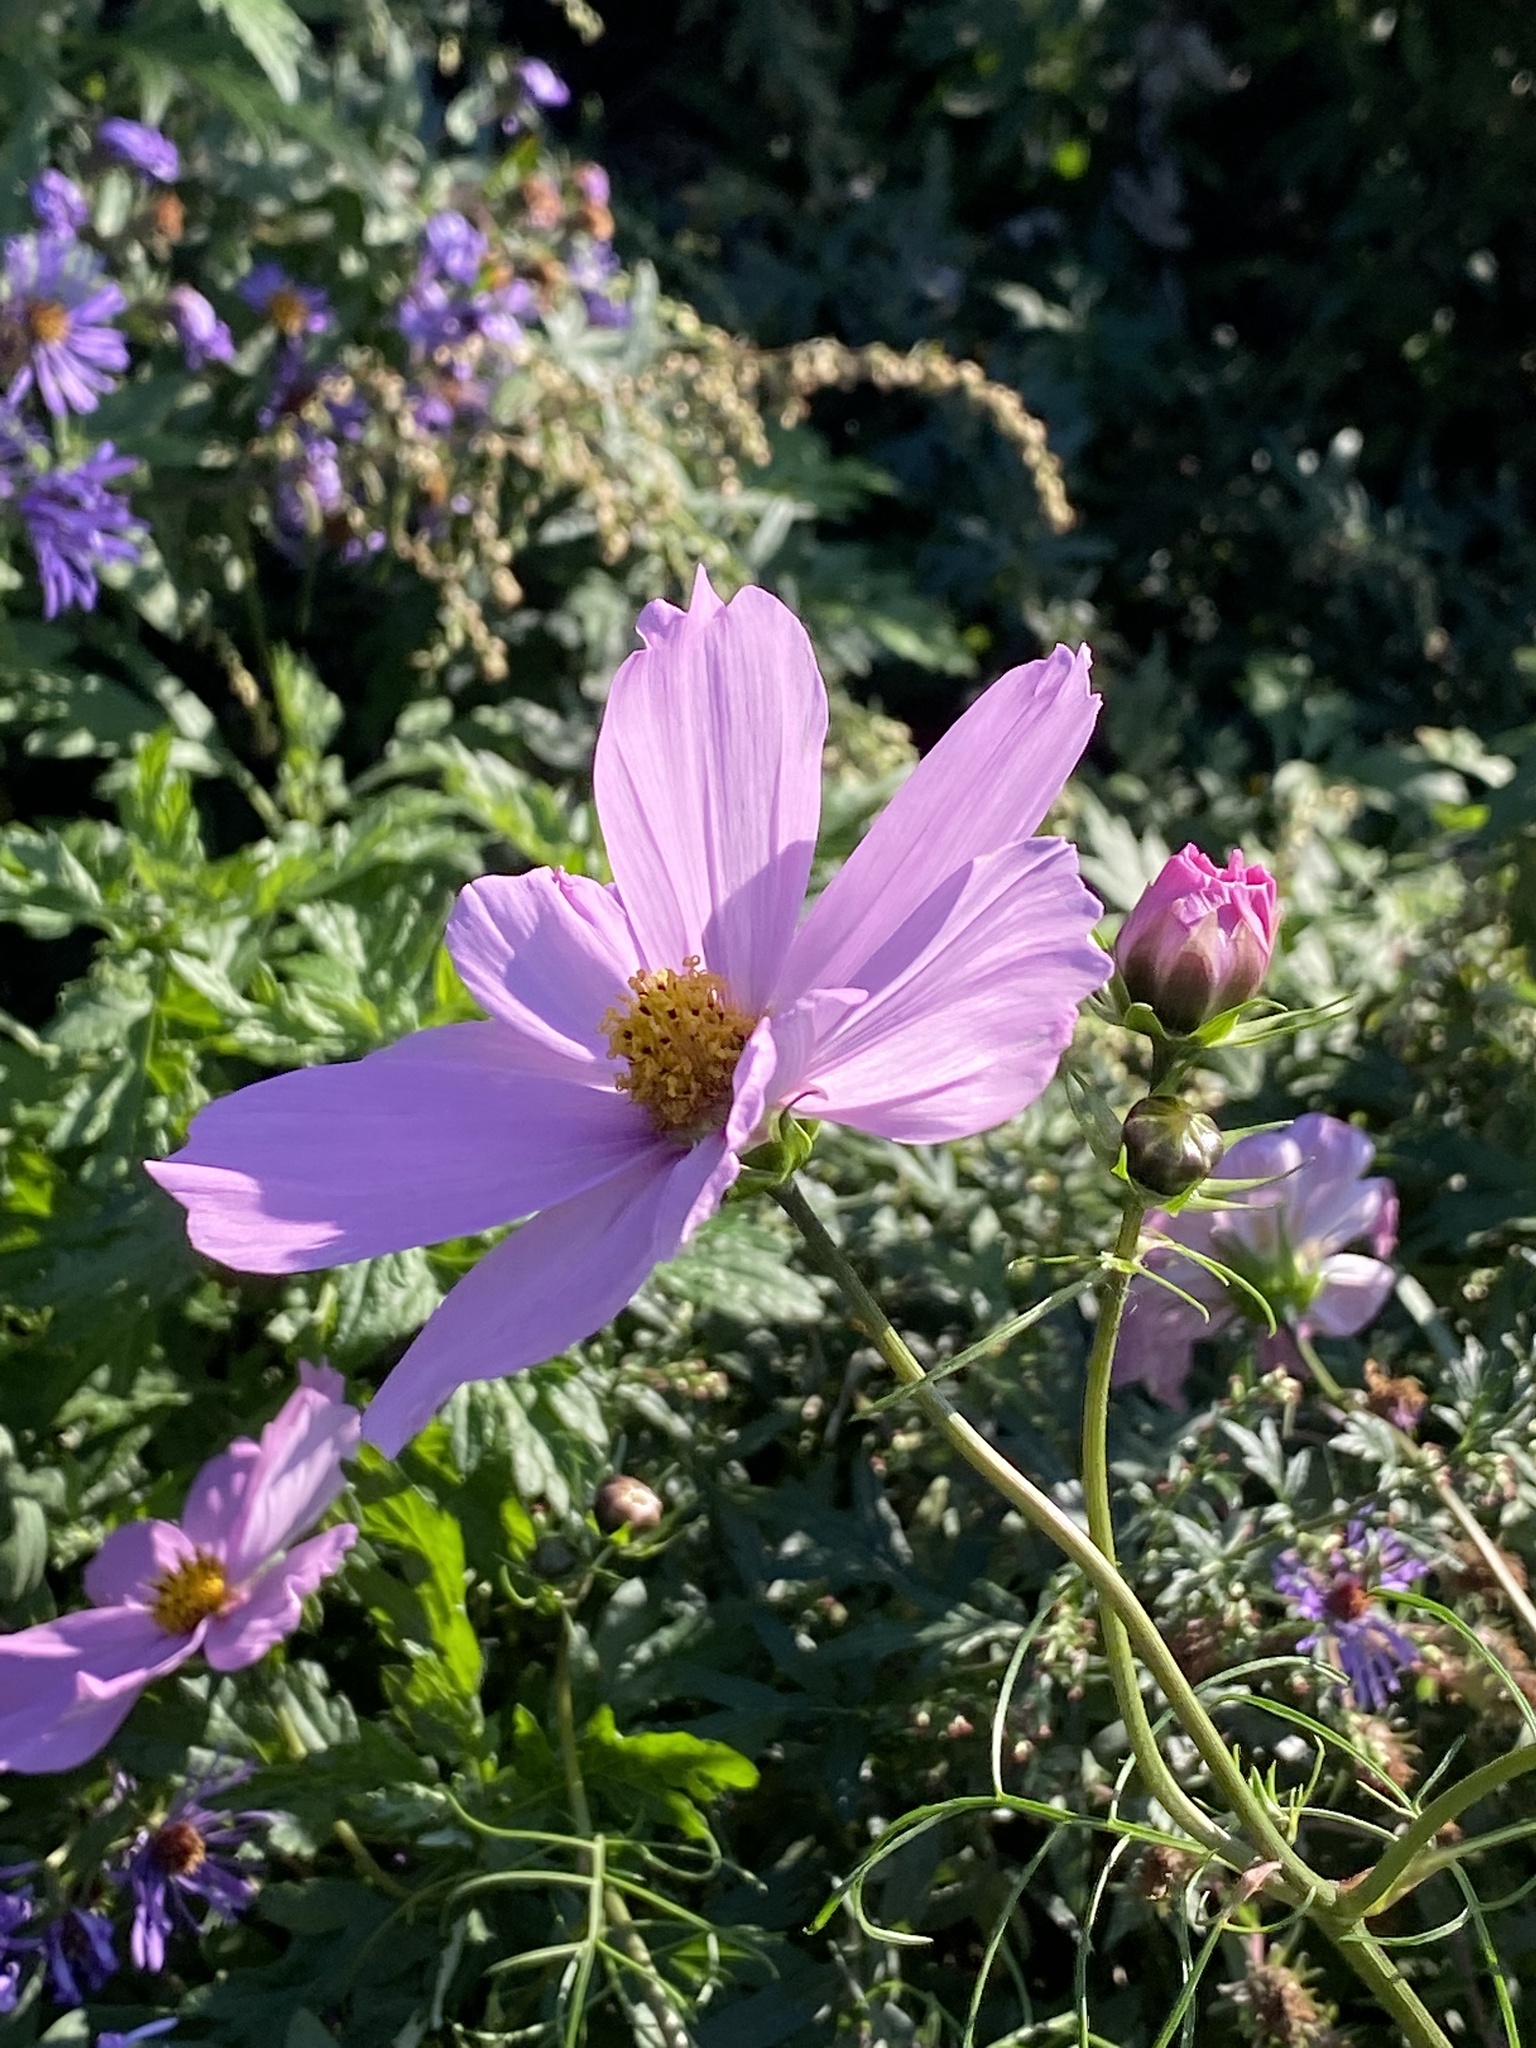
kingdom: Plantae
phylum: Tracheophyta
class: Magnoliopsida
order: Asterales
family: Asteraceae
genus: Cosmos
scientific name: Cosmos bipinnatus
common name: Garden cosmos
